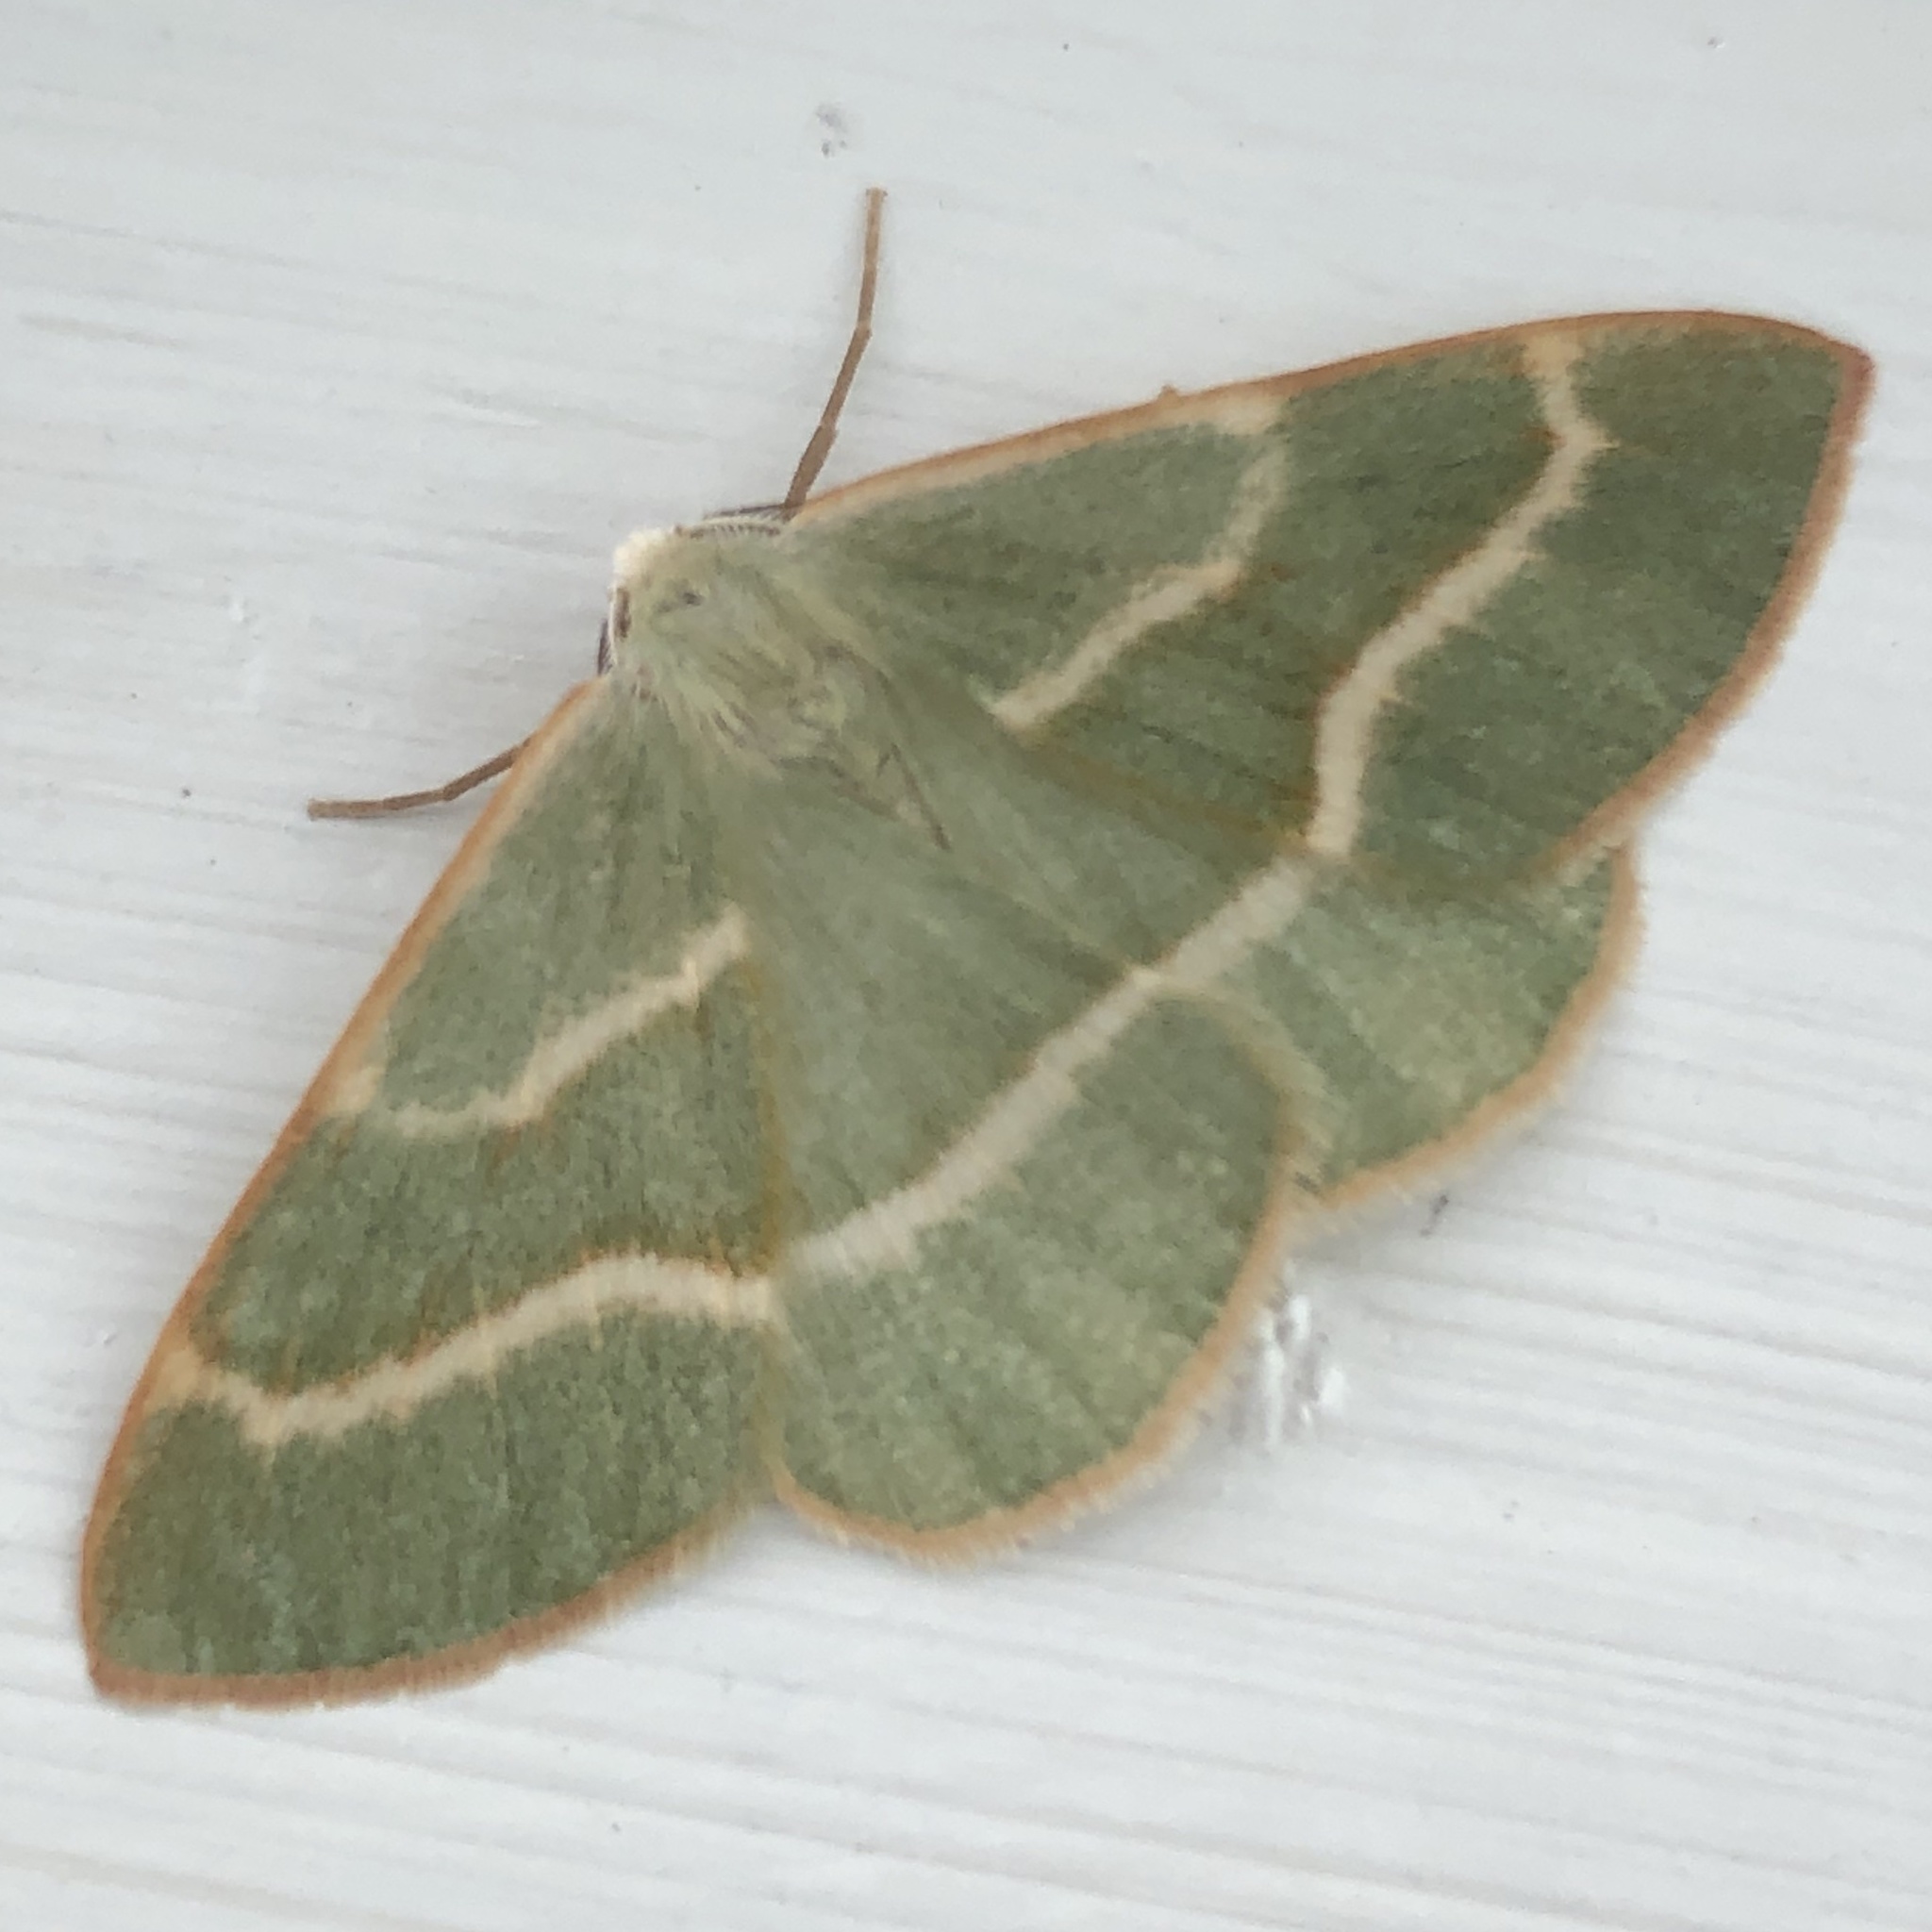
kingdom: Animalia
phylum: Arthropoda
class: Insecta
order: Lepidoptera
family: Geometridae
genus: Hylaea
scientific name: Hylaea fasciaria
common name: Barred red
